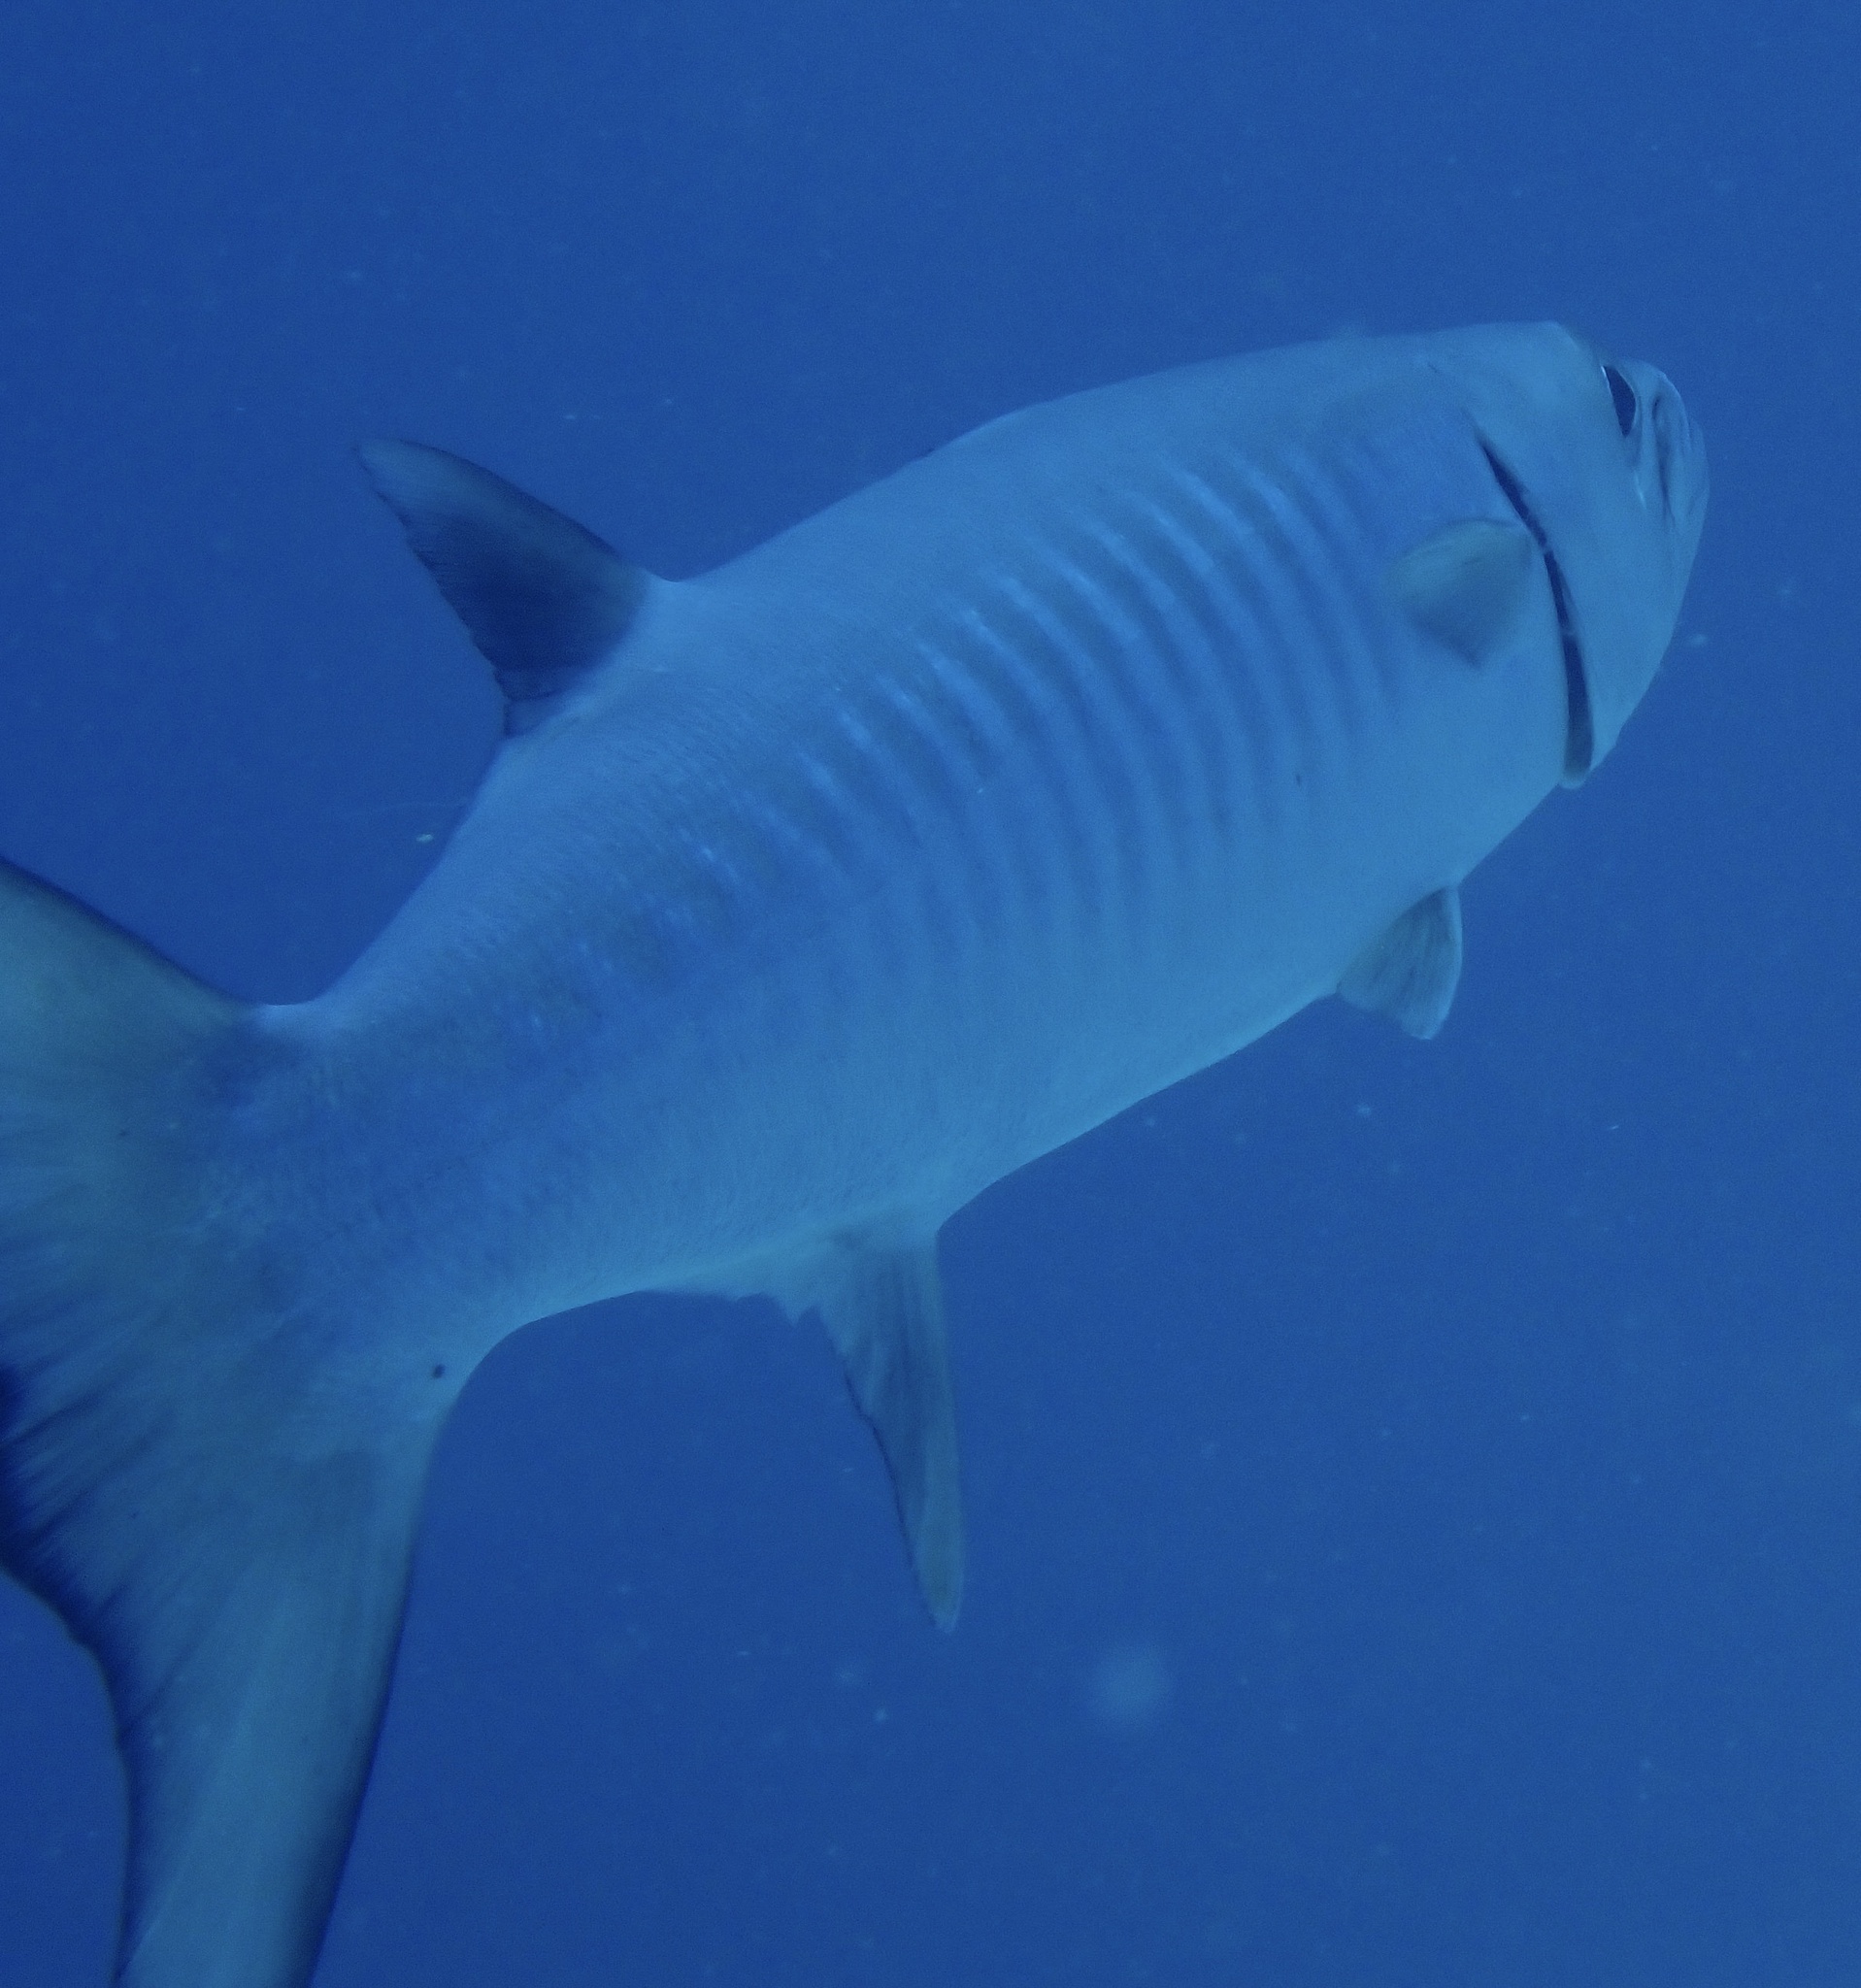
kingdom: Animalia
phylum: Chordata
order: Perciformes
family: Sphyraenidae
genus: Sphyraena
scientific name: Sphyraena qenie
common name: Blackfin barracuda
